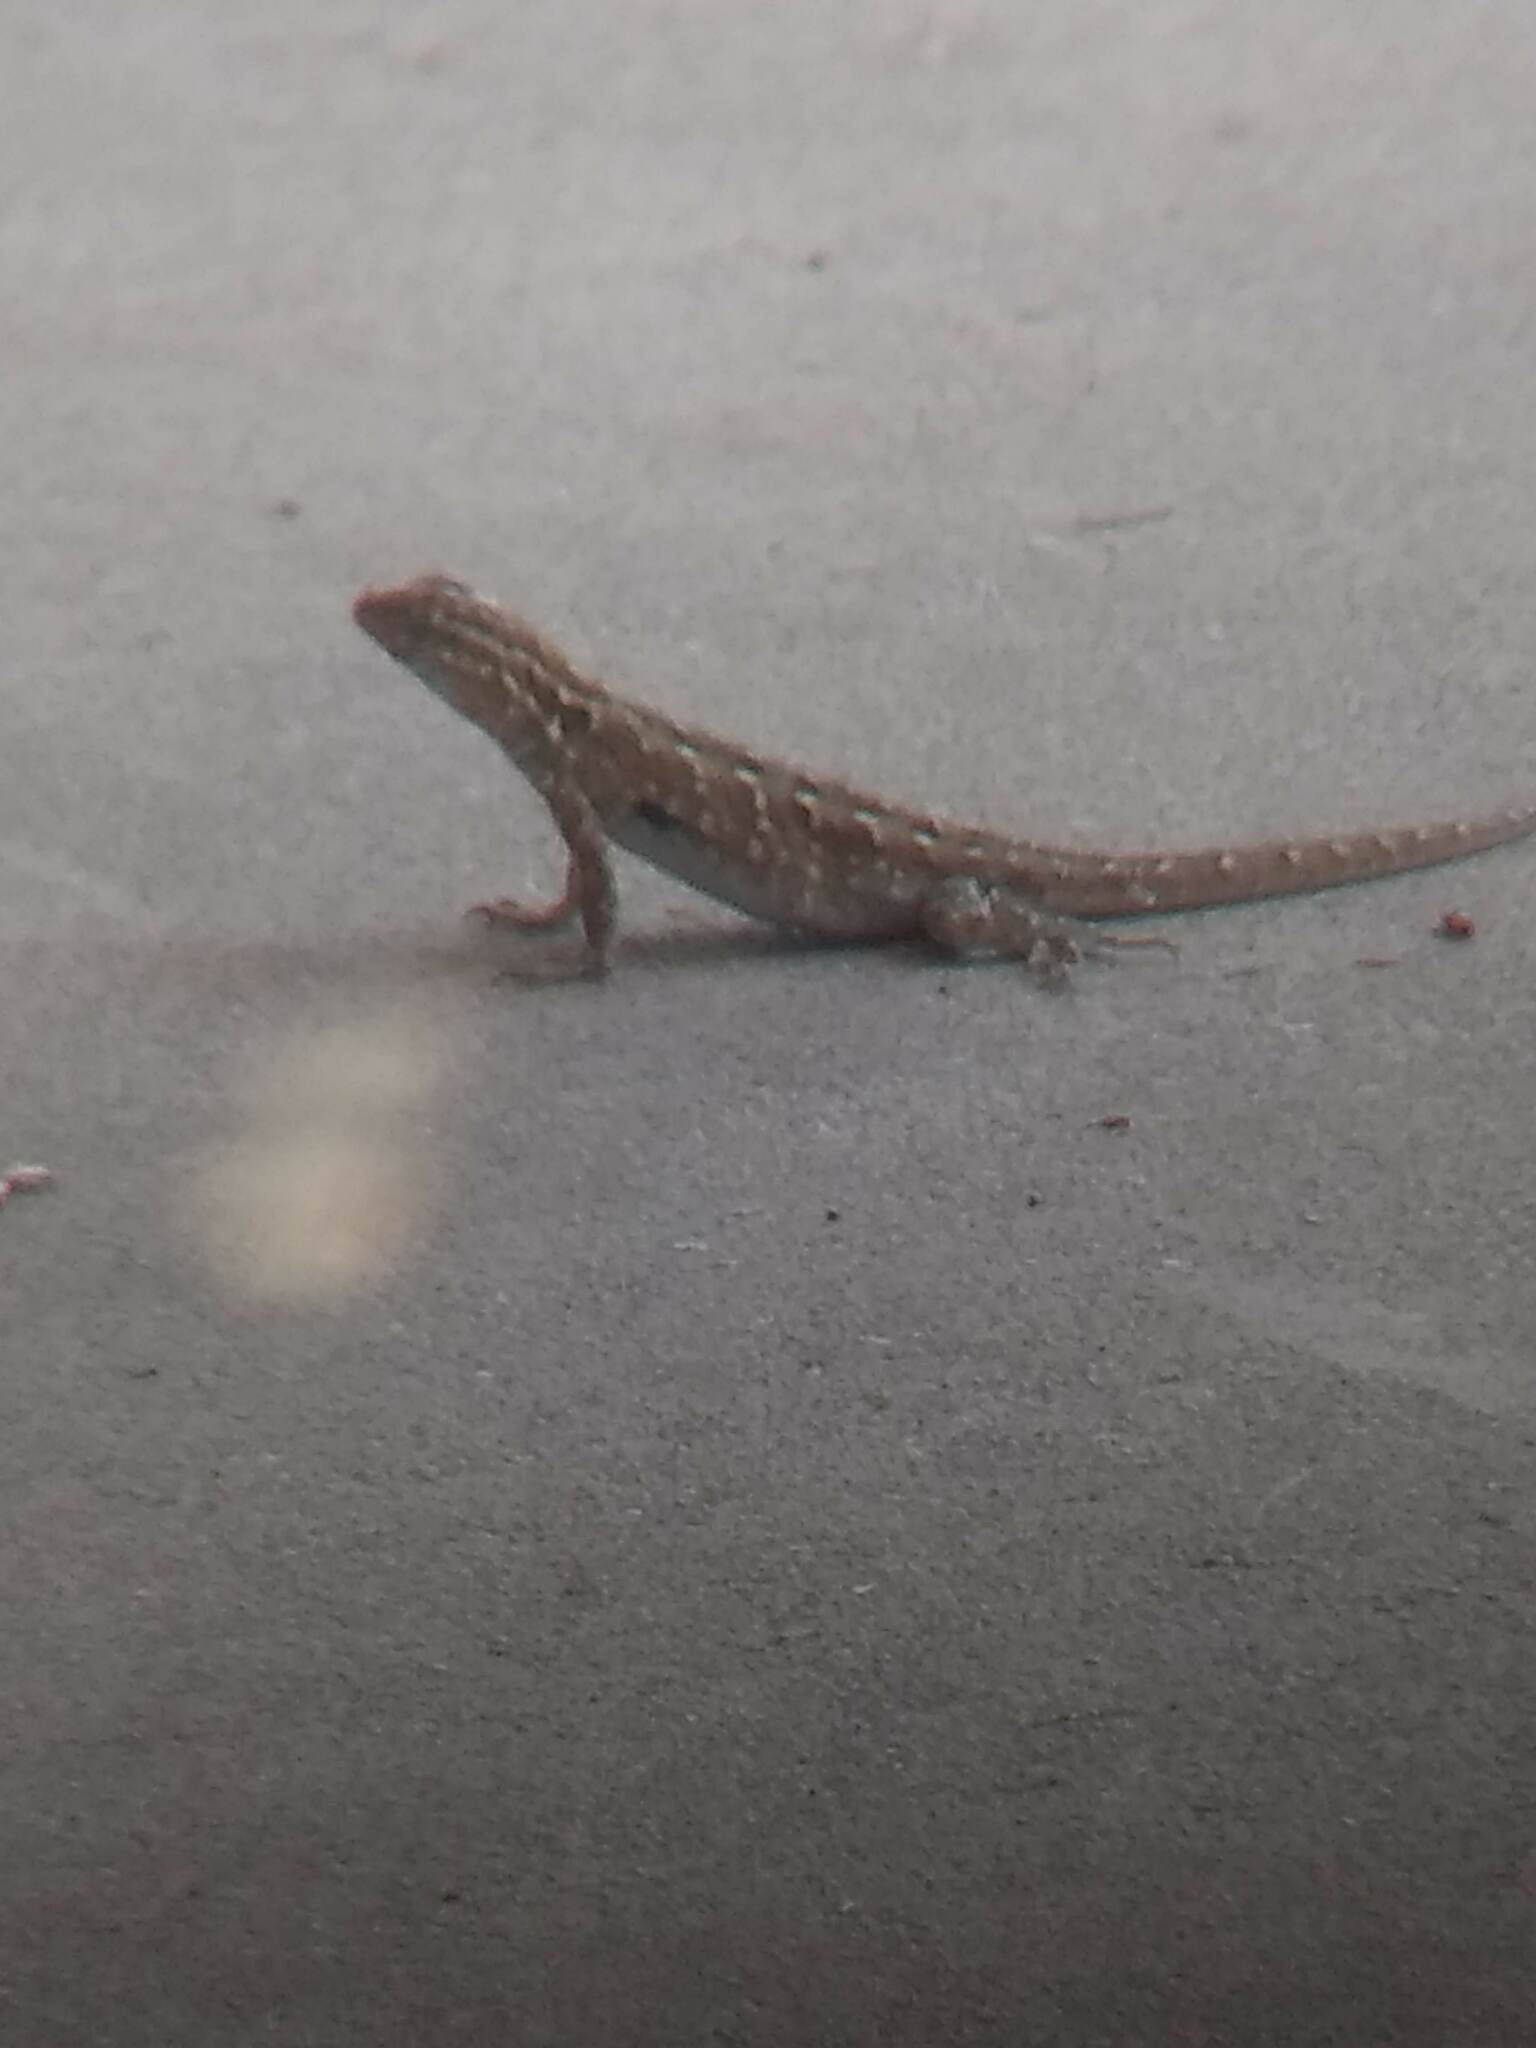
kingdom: Animalia
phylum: Chordata
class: Squamata
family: Phrynosomatidae
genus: Uta
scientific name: Uta stansburiana
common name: Side-blotched lizard
